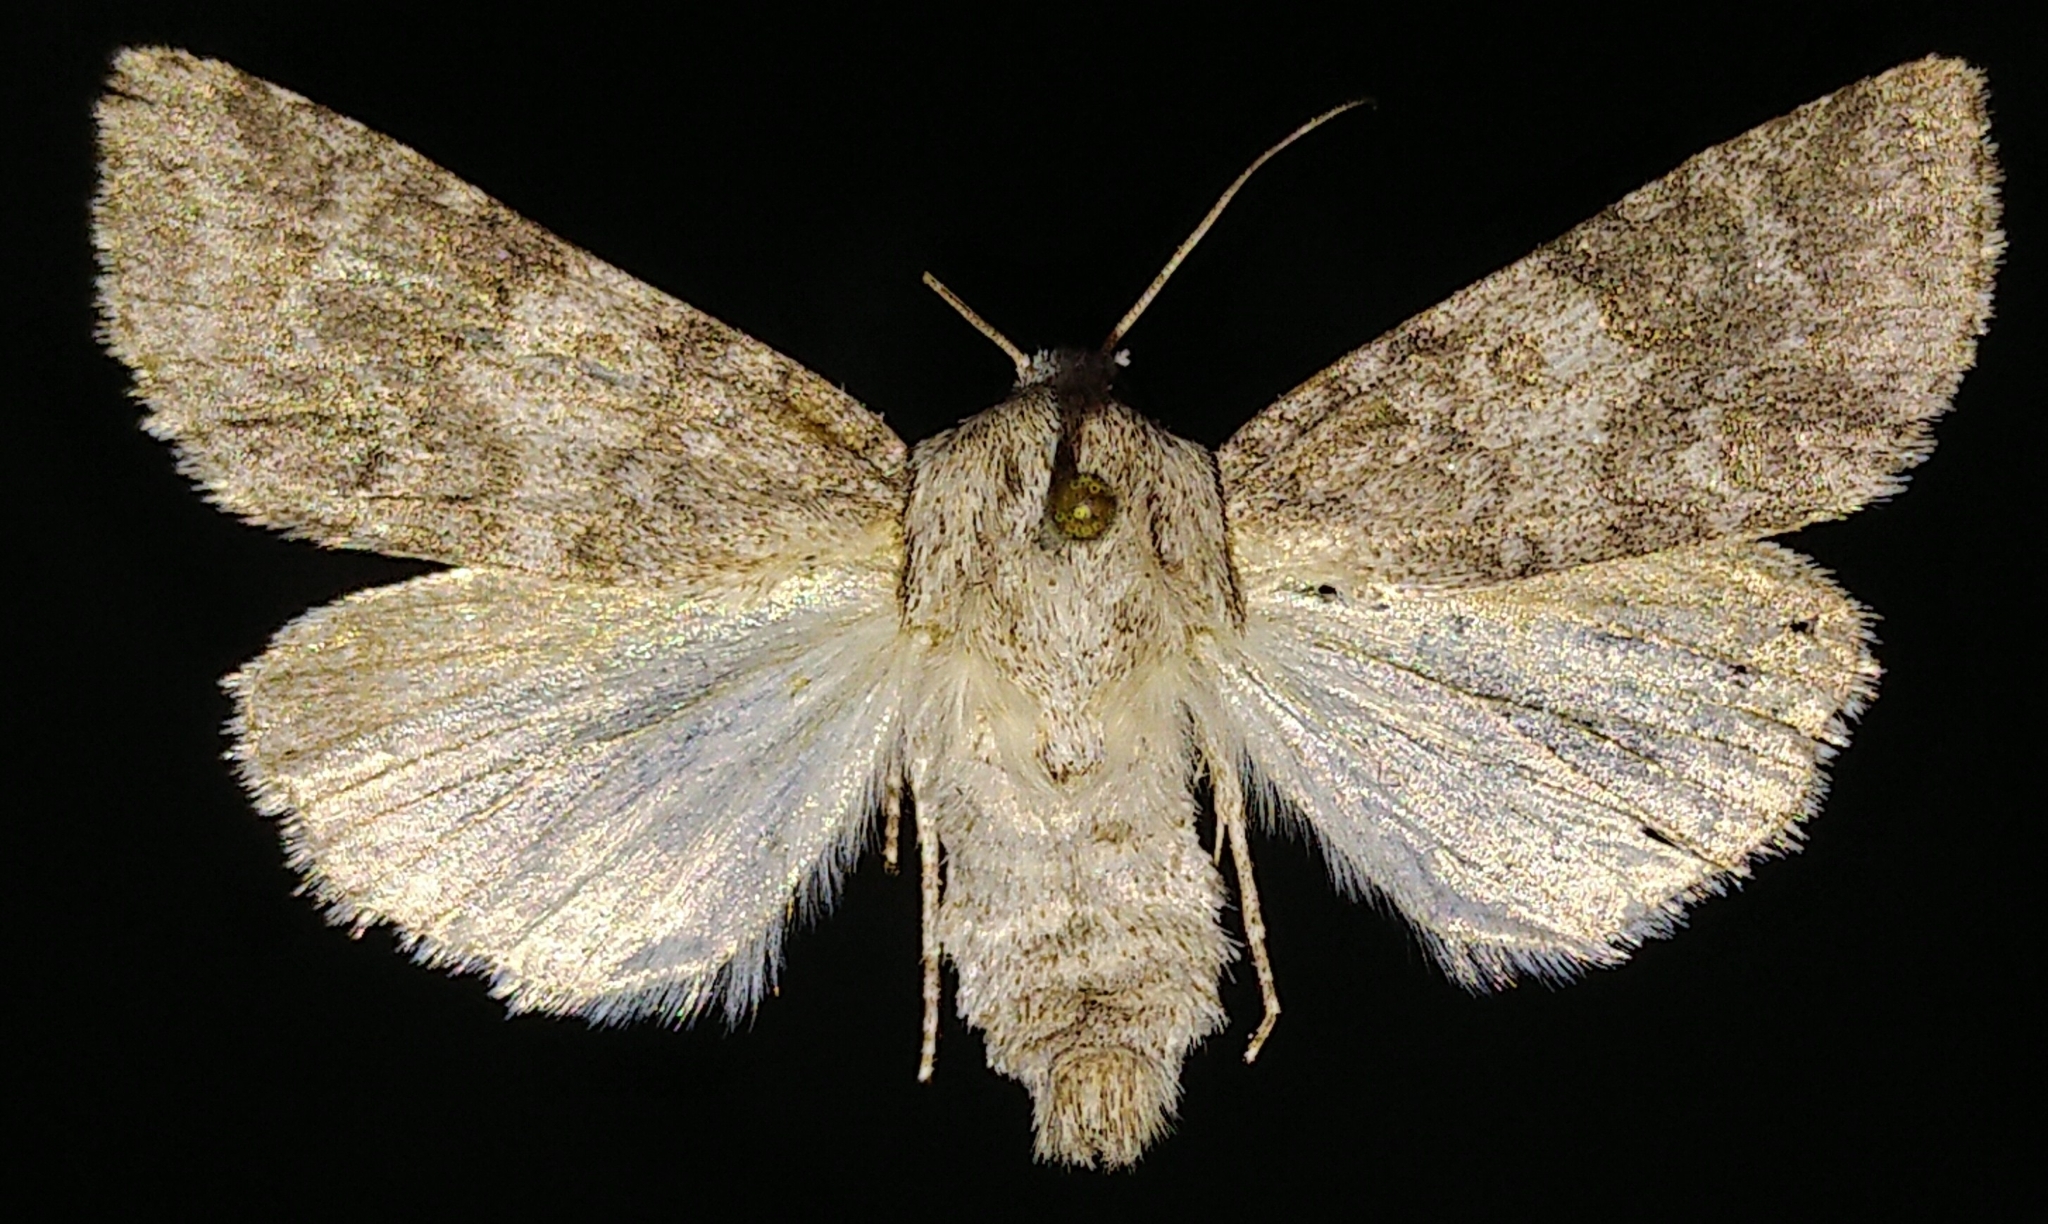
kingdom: Animalia
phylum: Arthropoda
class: Insecta
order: Lepidoptera
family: Noctuidae
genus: Acronicta
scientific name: Acronicta sperata
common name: Hopeful dagger
